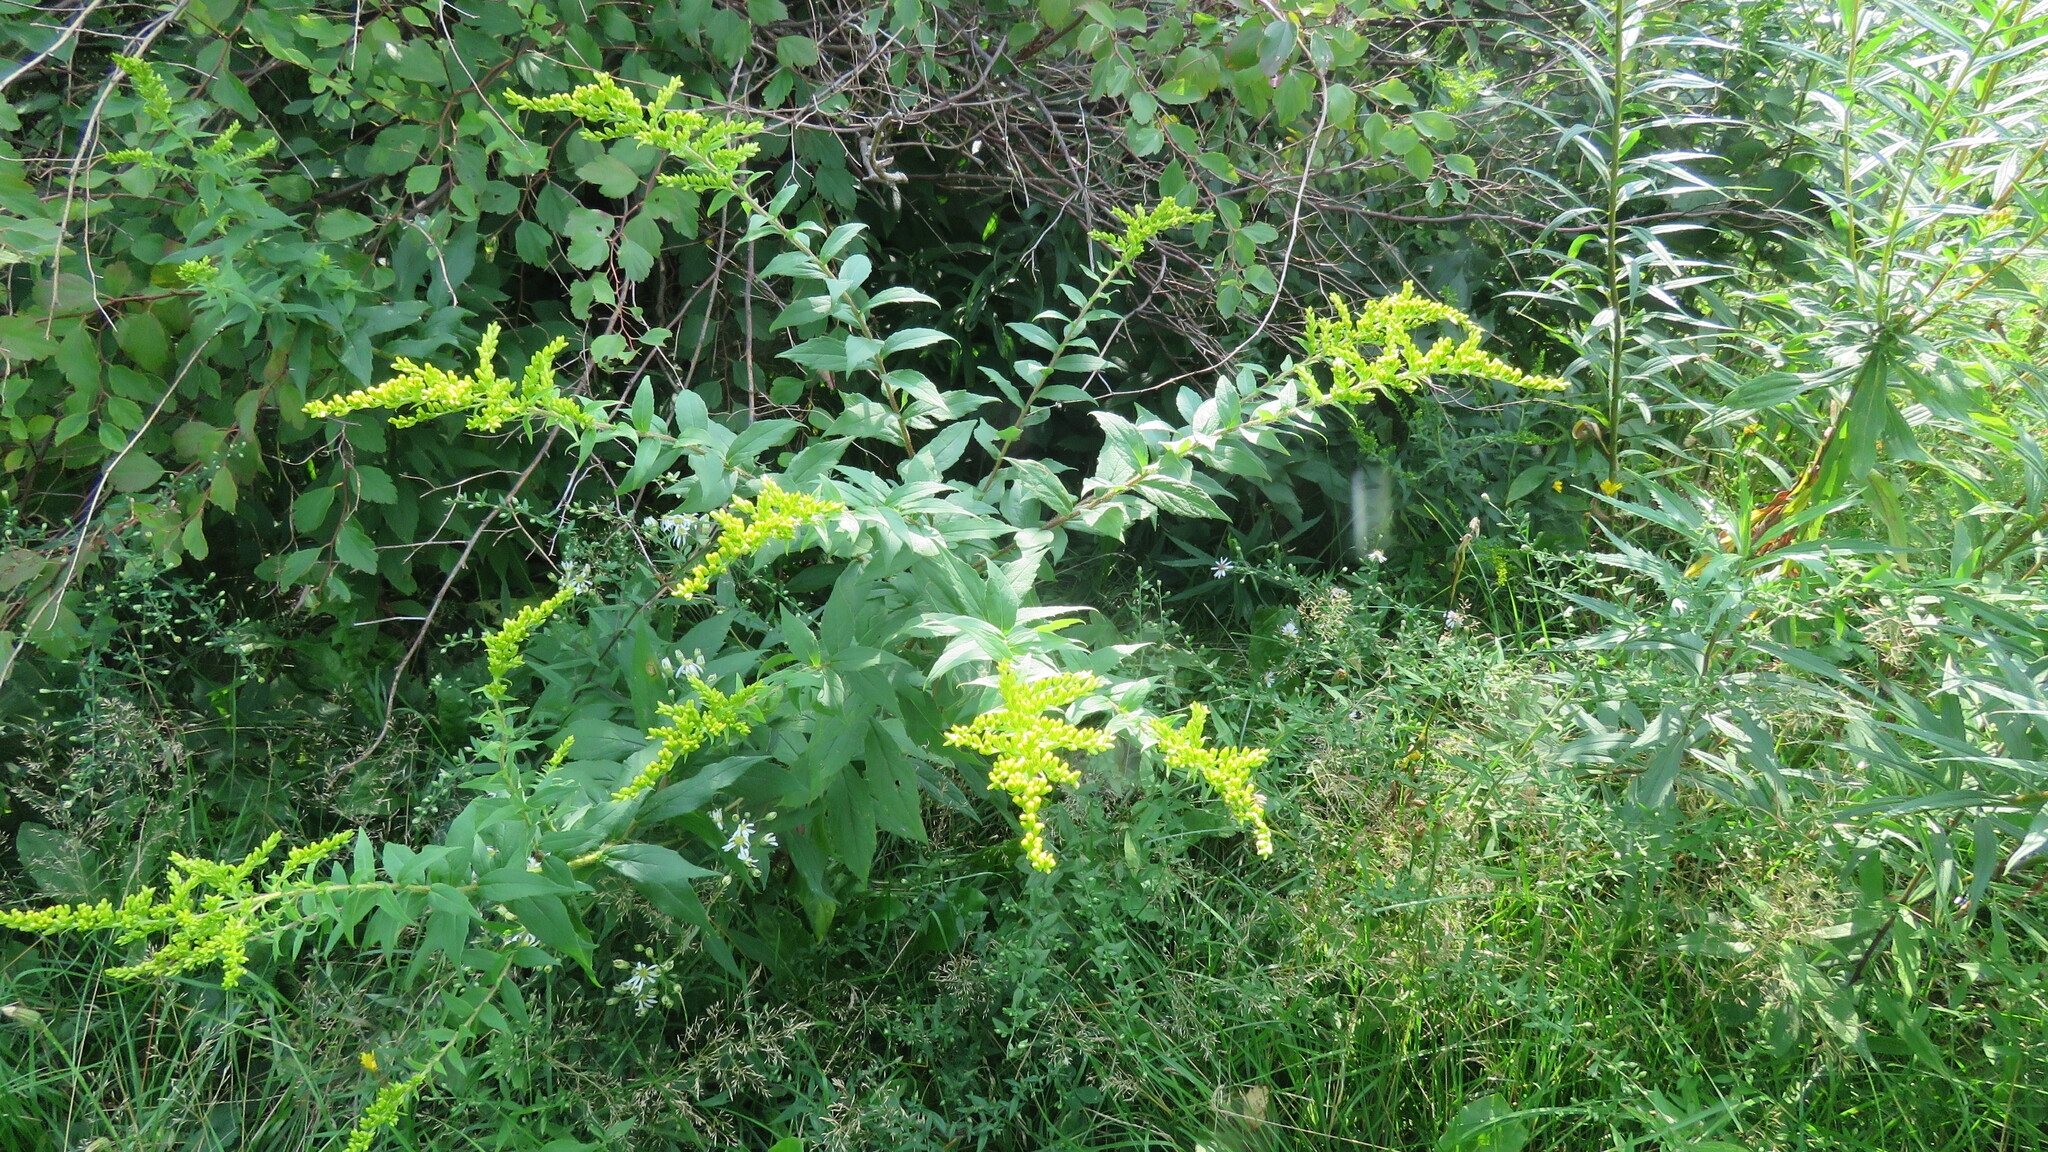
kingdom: Plantae
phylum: Tracheophyta
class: Magnoliopsida
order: Asterales
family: Asteraceae
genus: Solidago
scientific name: Solidago rugosa
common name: Rough-stemmed goldenrod
